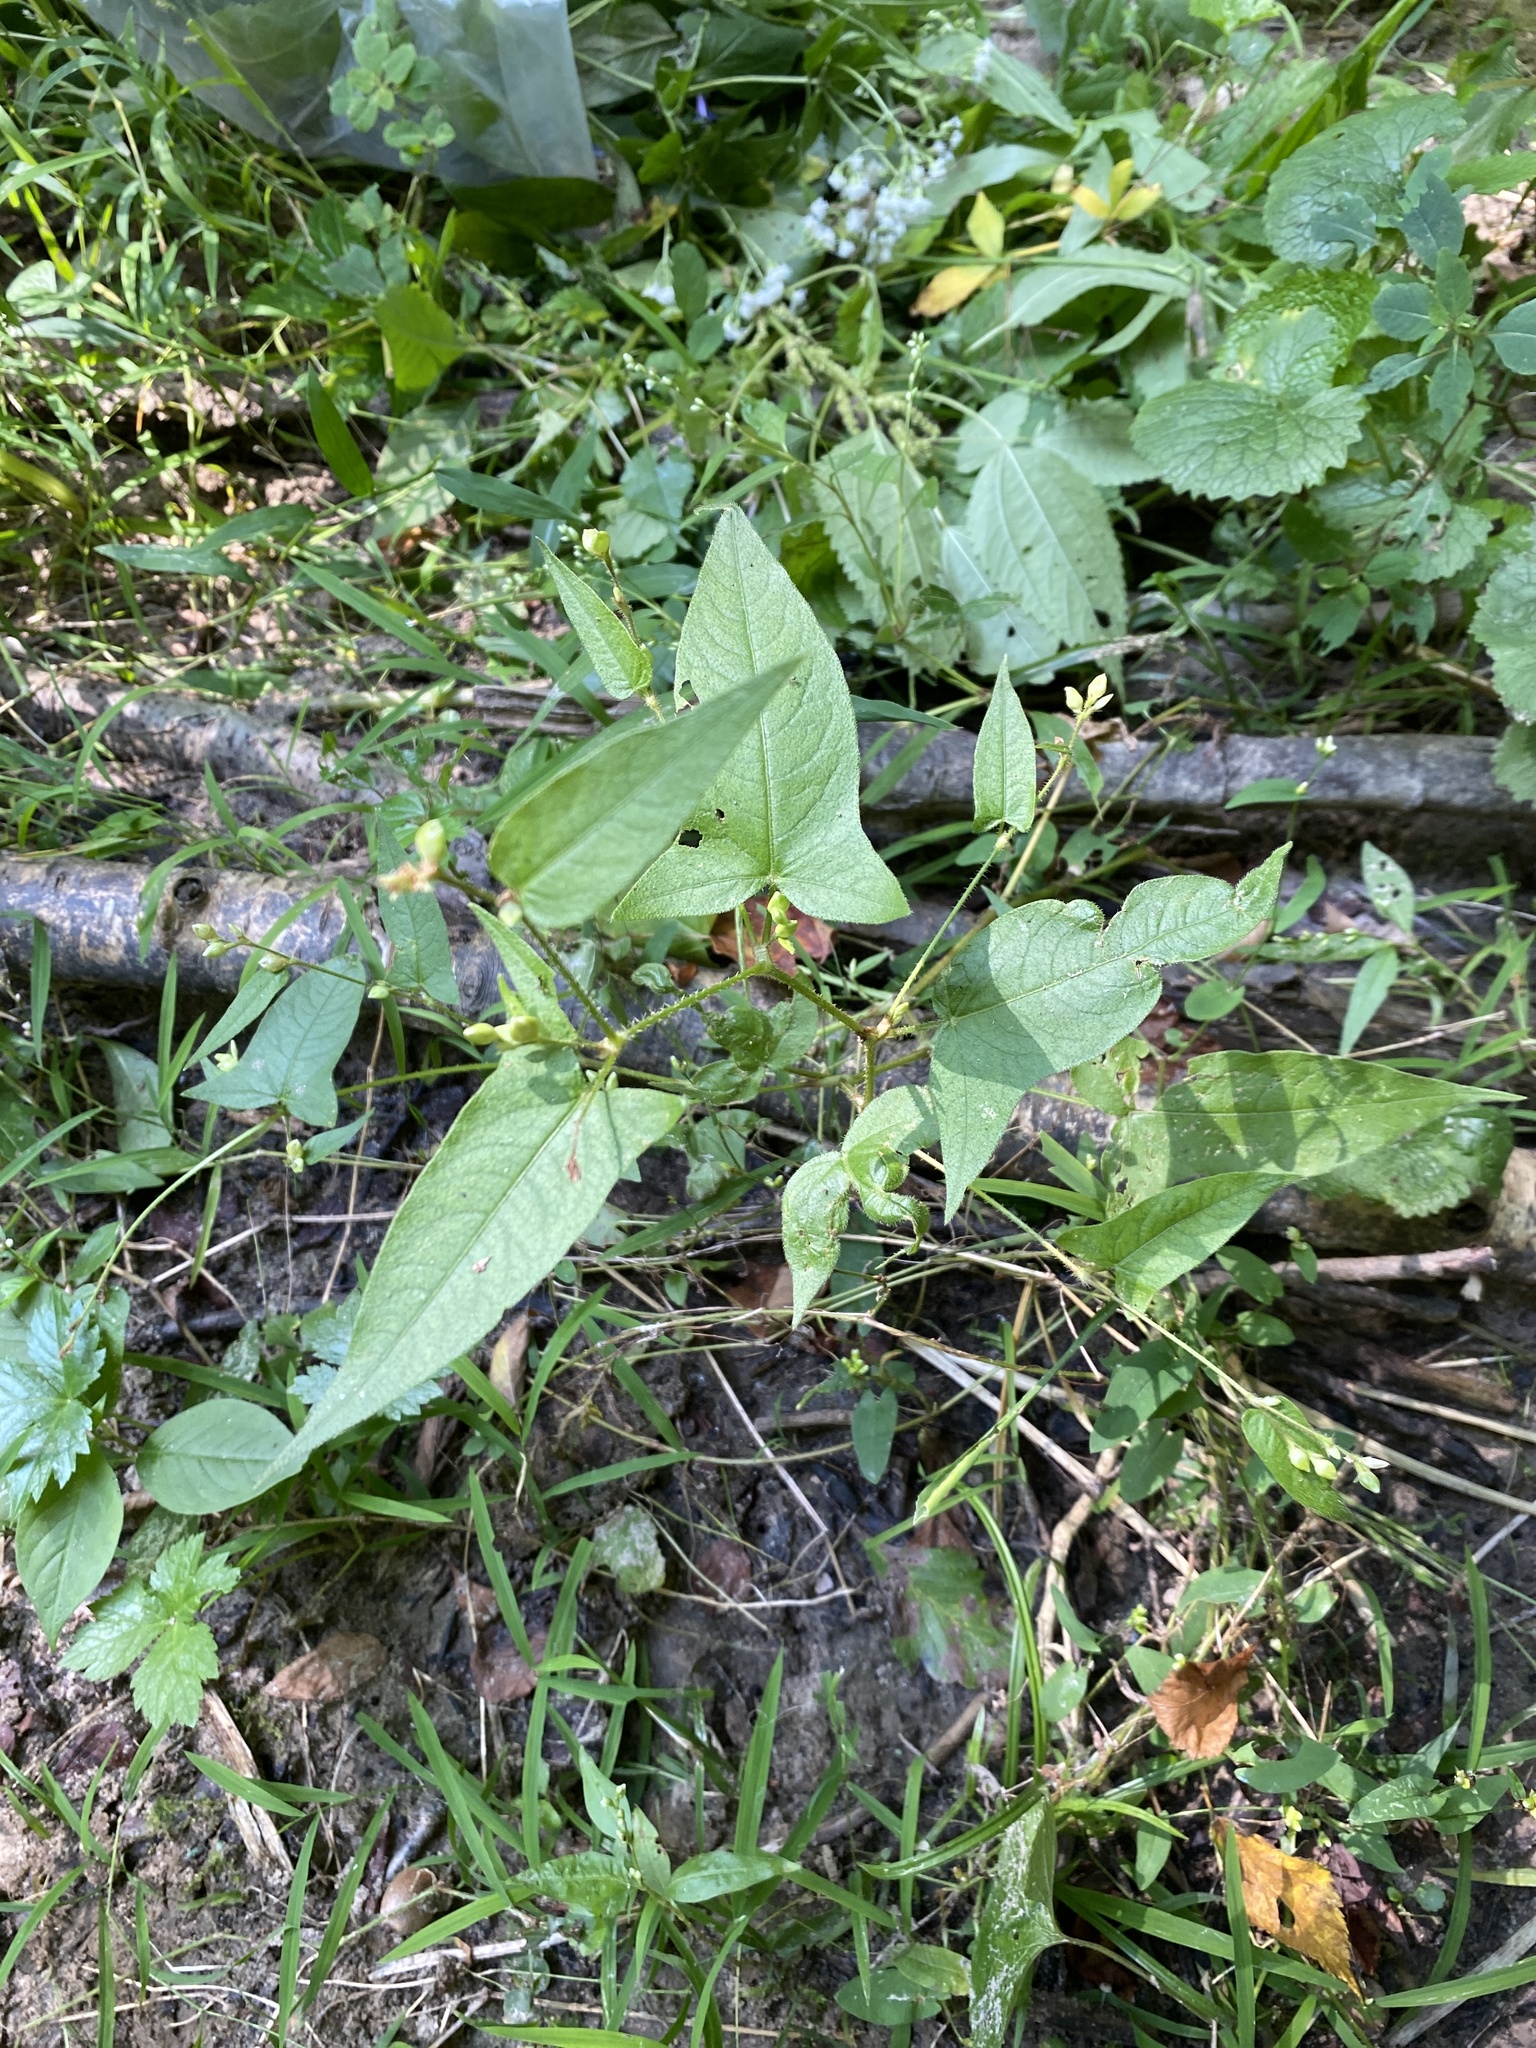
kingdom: Plantae
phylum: Tracheophyta
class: Magnoliopsida
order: Caryophyllales
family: Polygonaceae
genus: Persicaria
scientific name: Persicaria arifolia
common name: Halberd-leaved tear-thumb
